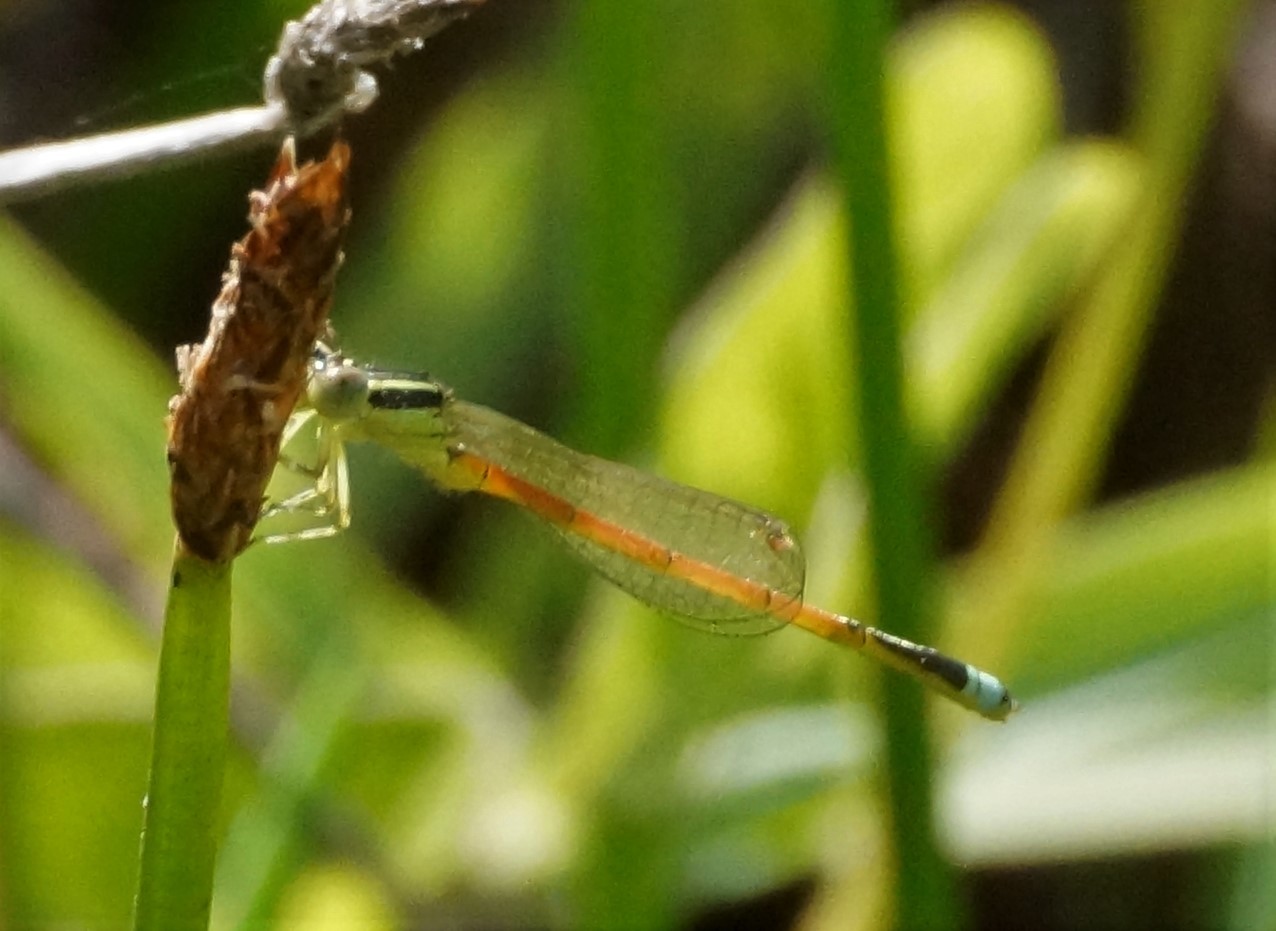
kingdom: Animalia
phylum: Arthropoda
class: Insecta
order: Odonata
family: Coenagrionidae
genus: Ischnura
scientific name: Ischnura aurora
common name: Gossamer damselfly
